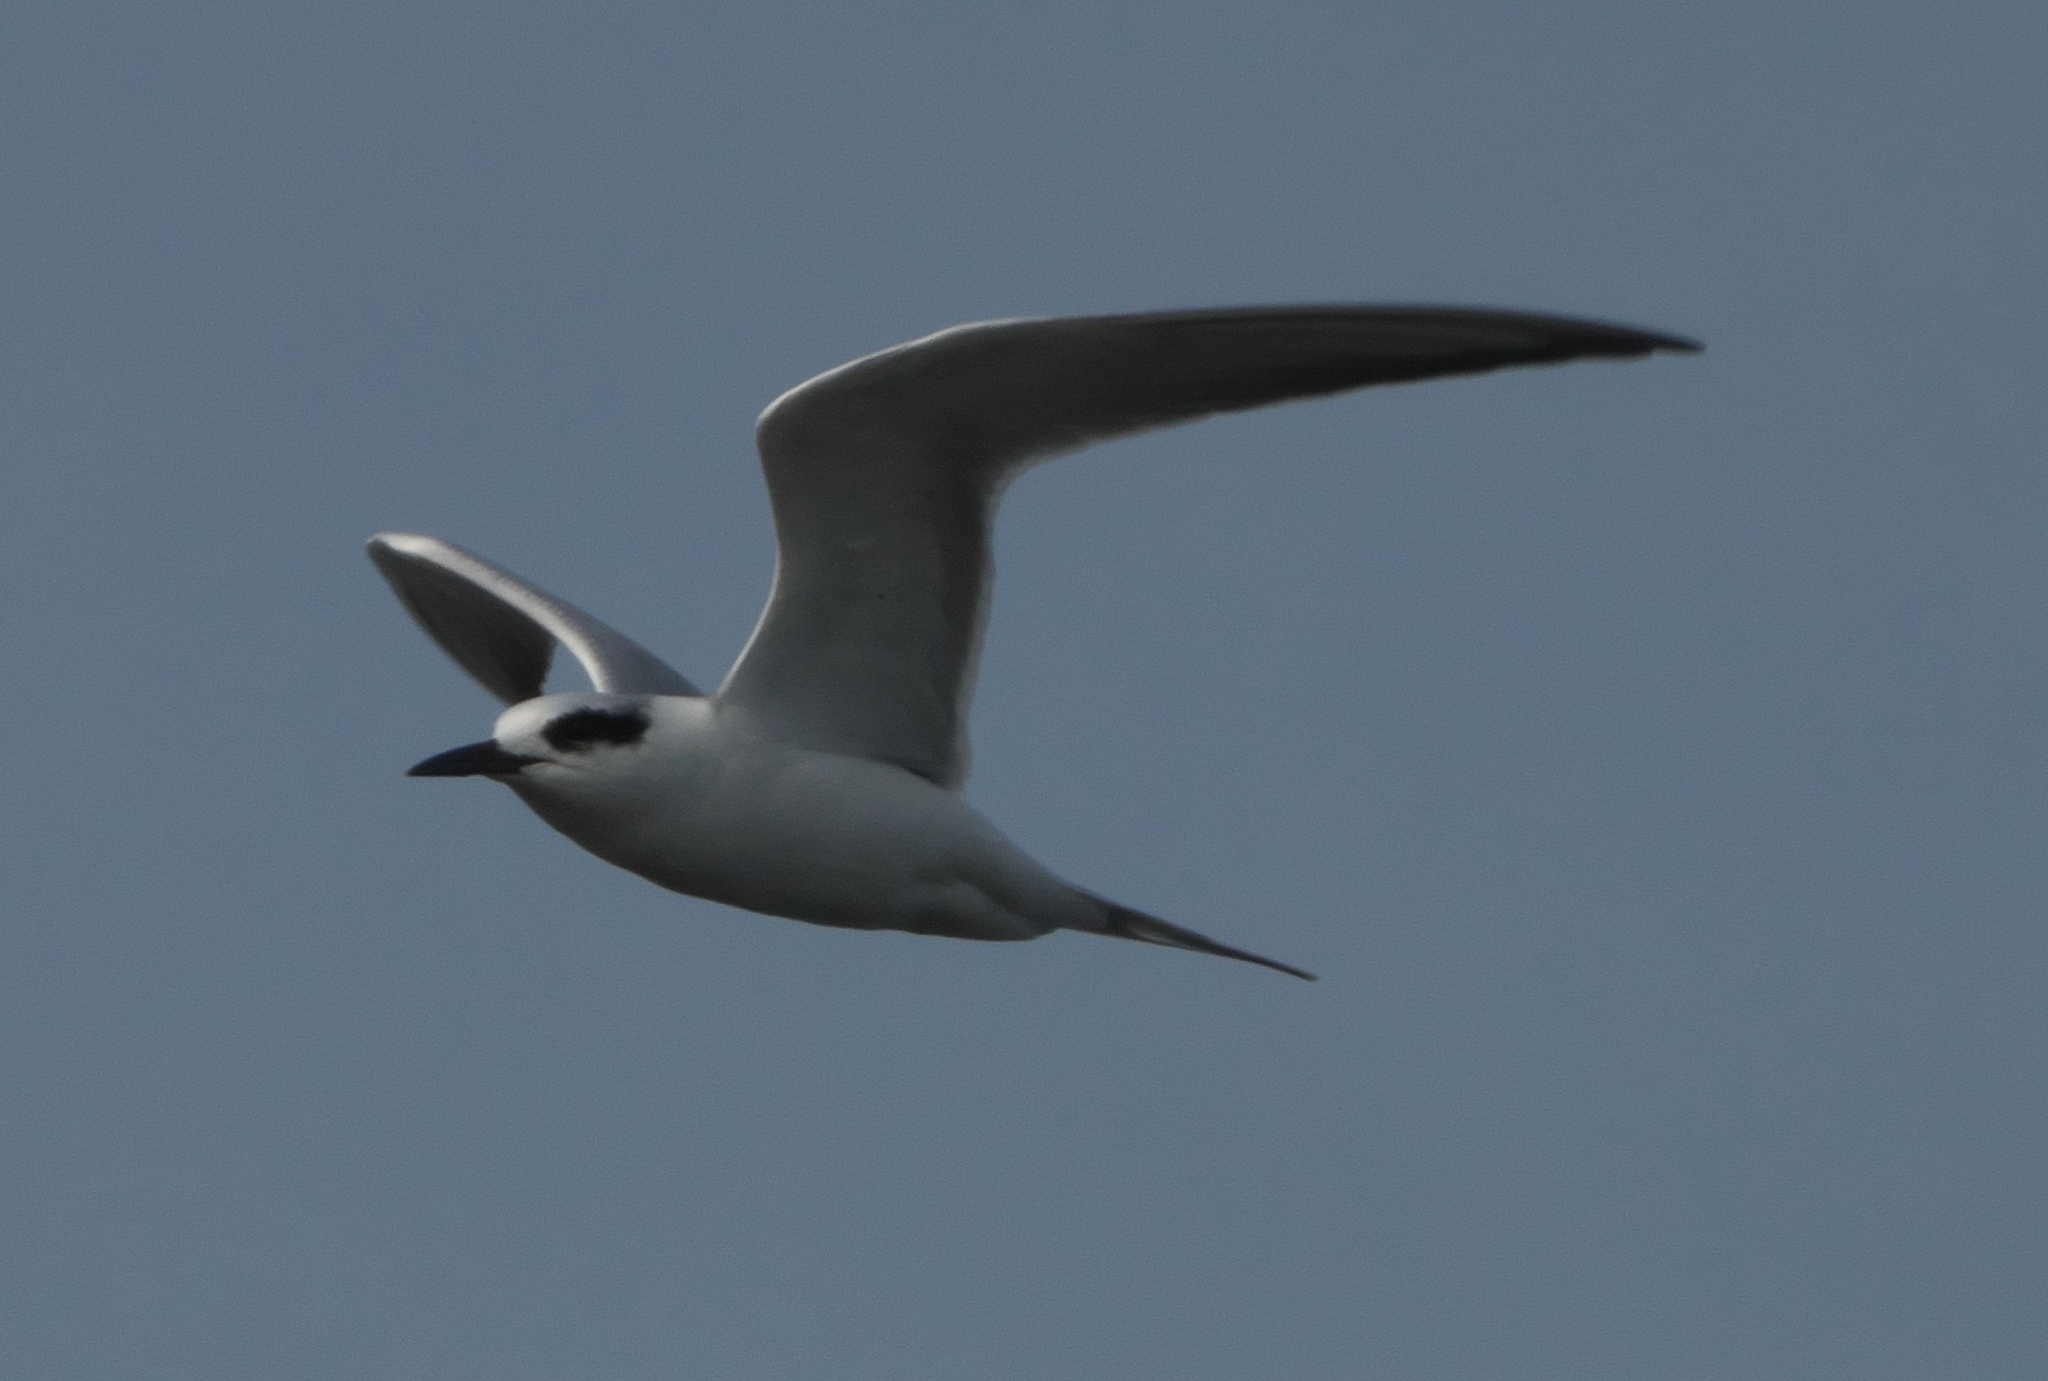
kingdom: Animalia
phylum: Chordata
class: Aves
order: Charadriiformes
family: Laridae
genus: Sterna
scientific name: Sterna forsteri
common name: Forster's tern
